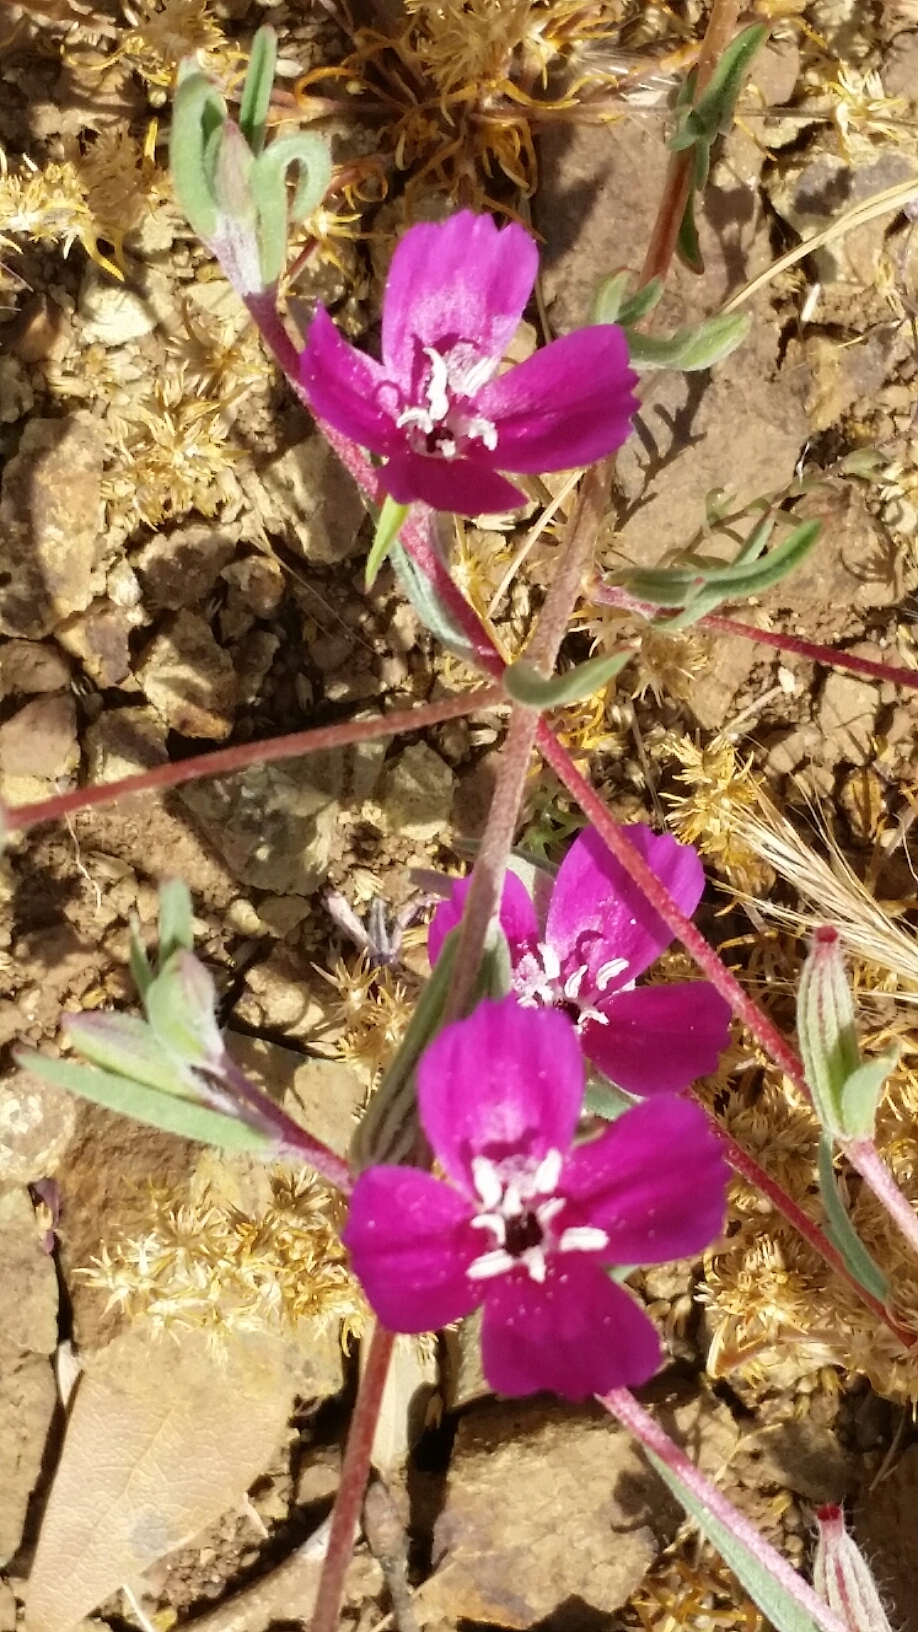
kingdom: Plantae
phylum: Tracheophyta
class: Magnoliopsida
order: Myrtales
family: Onagraceae
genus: Clarkia
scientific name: Clarkia purpurea
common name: Purple clarkia
